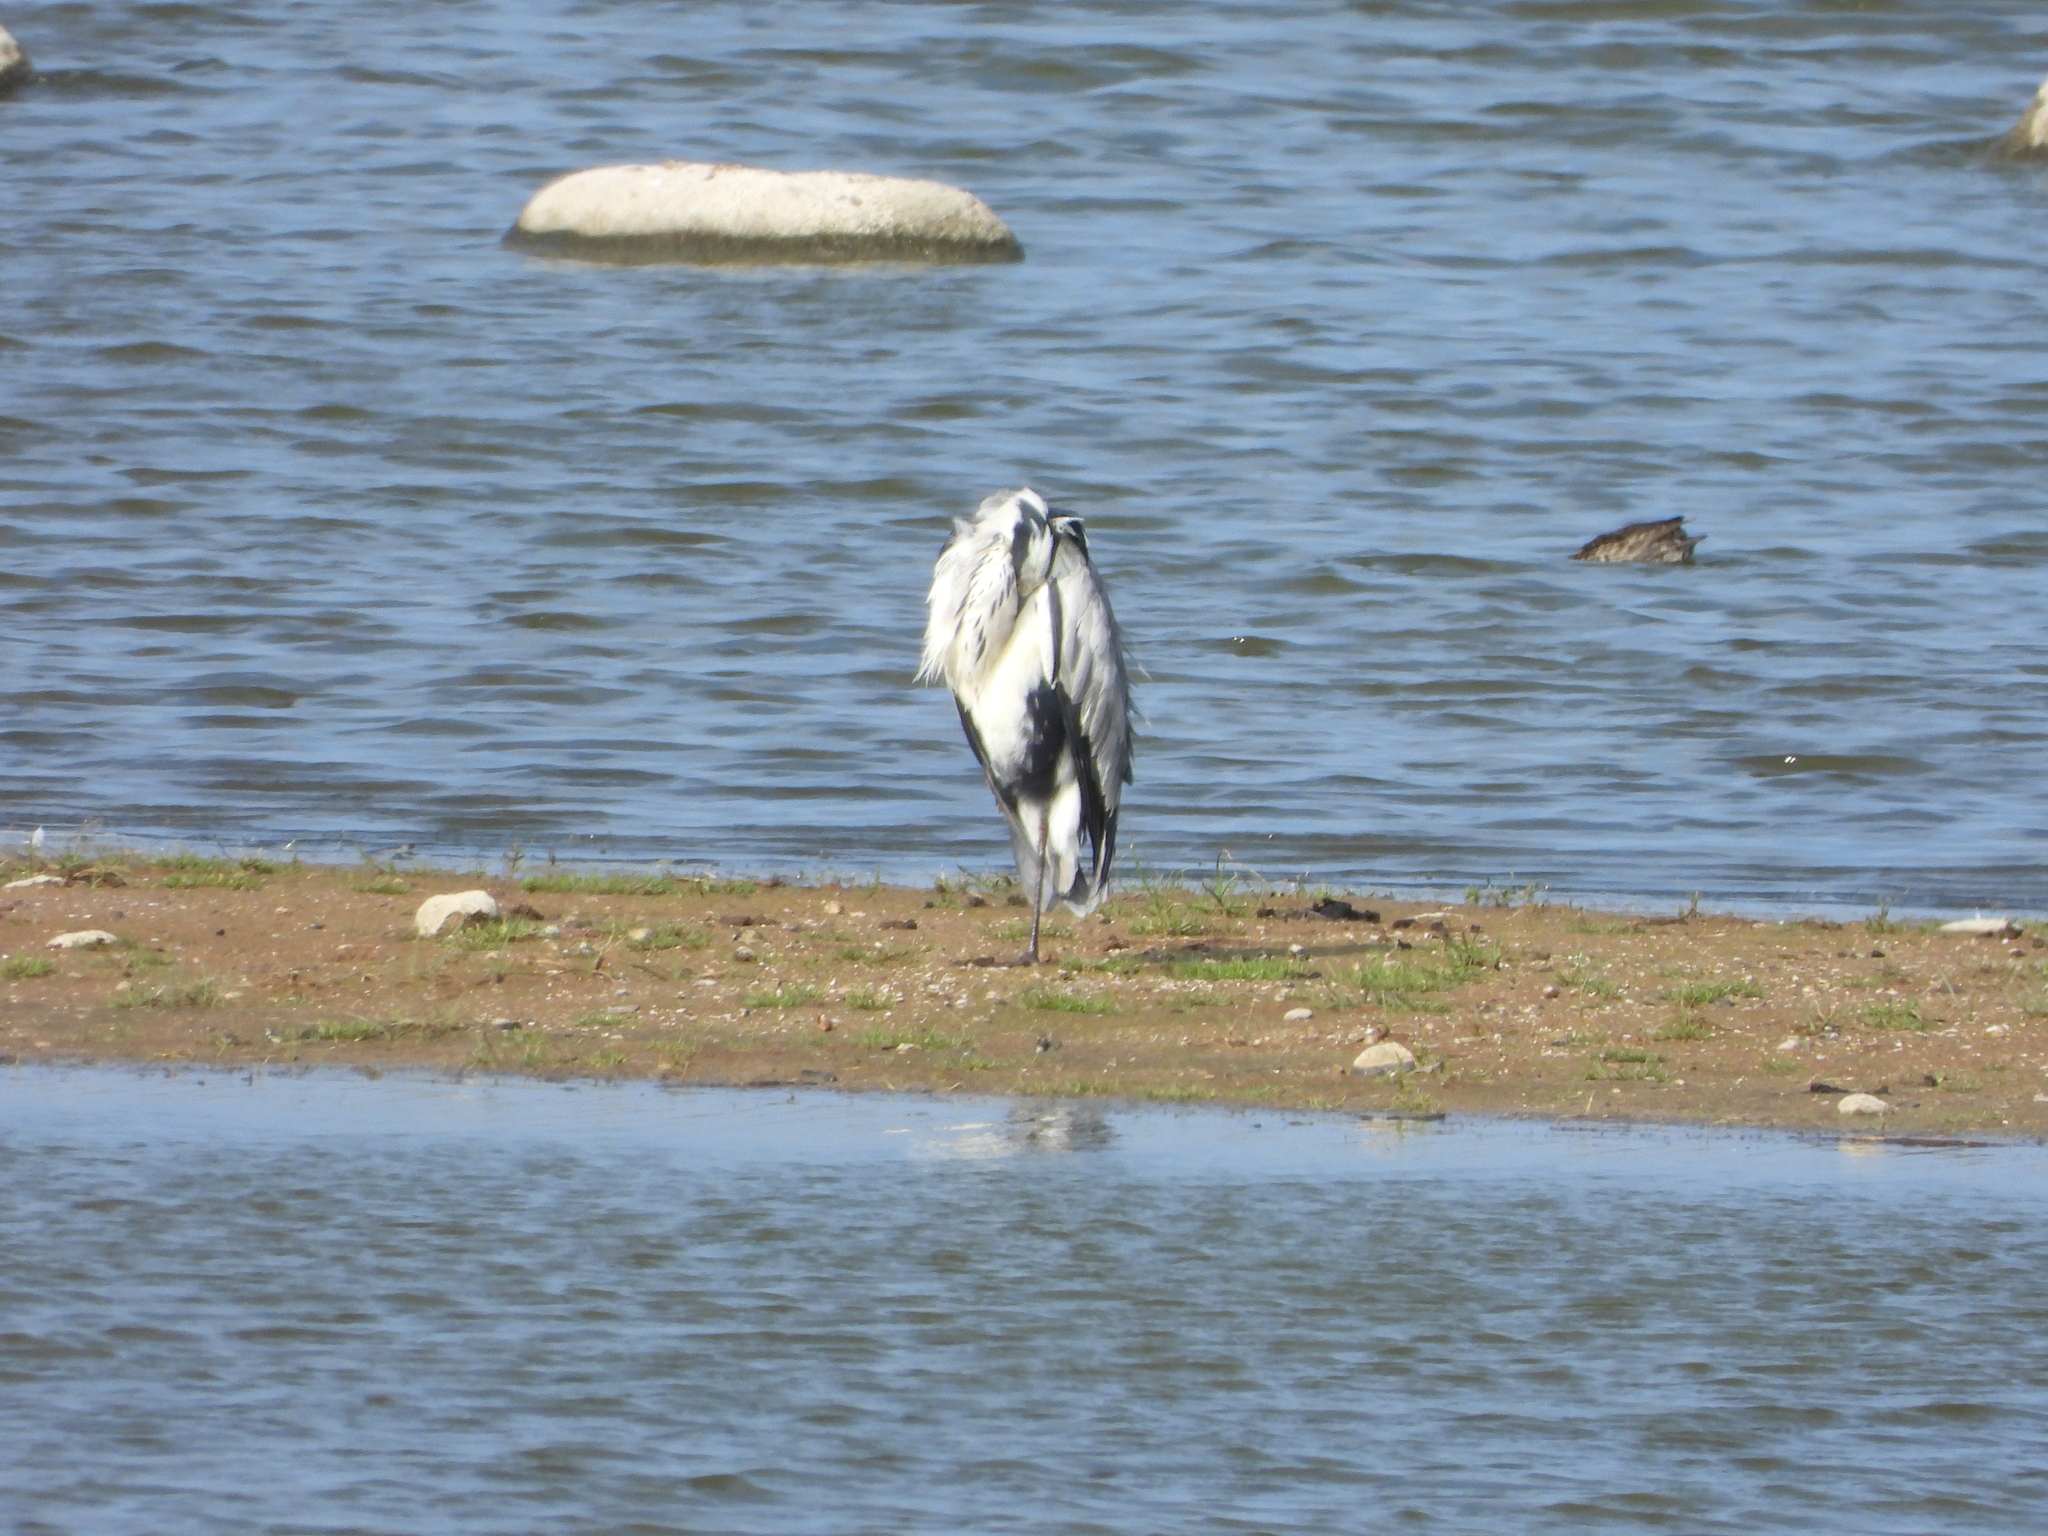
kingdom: Animalia
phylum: Chordata
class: Aves
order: Pelecaniformes
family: Ardeidae
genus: Ardea
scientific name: Ardea cinerea
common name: Grey heron
